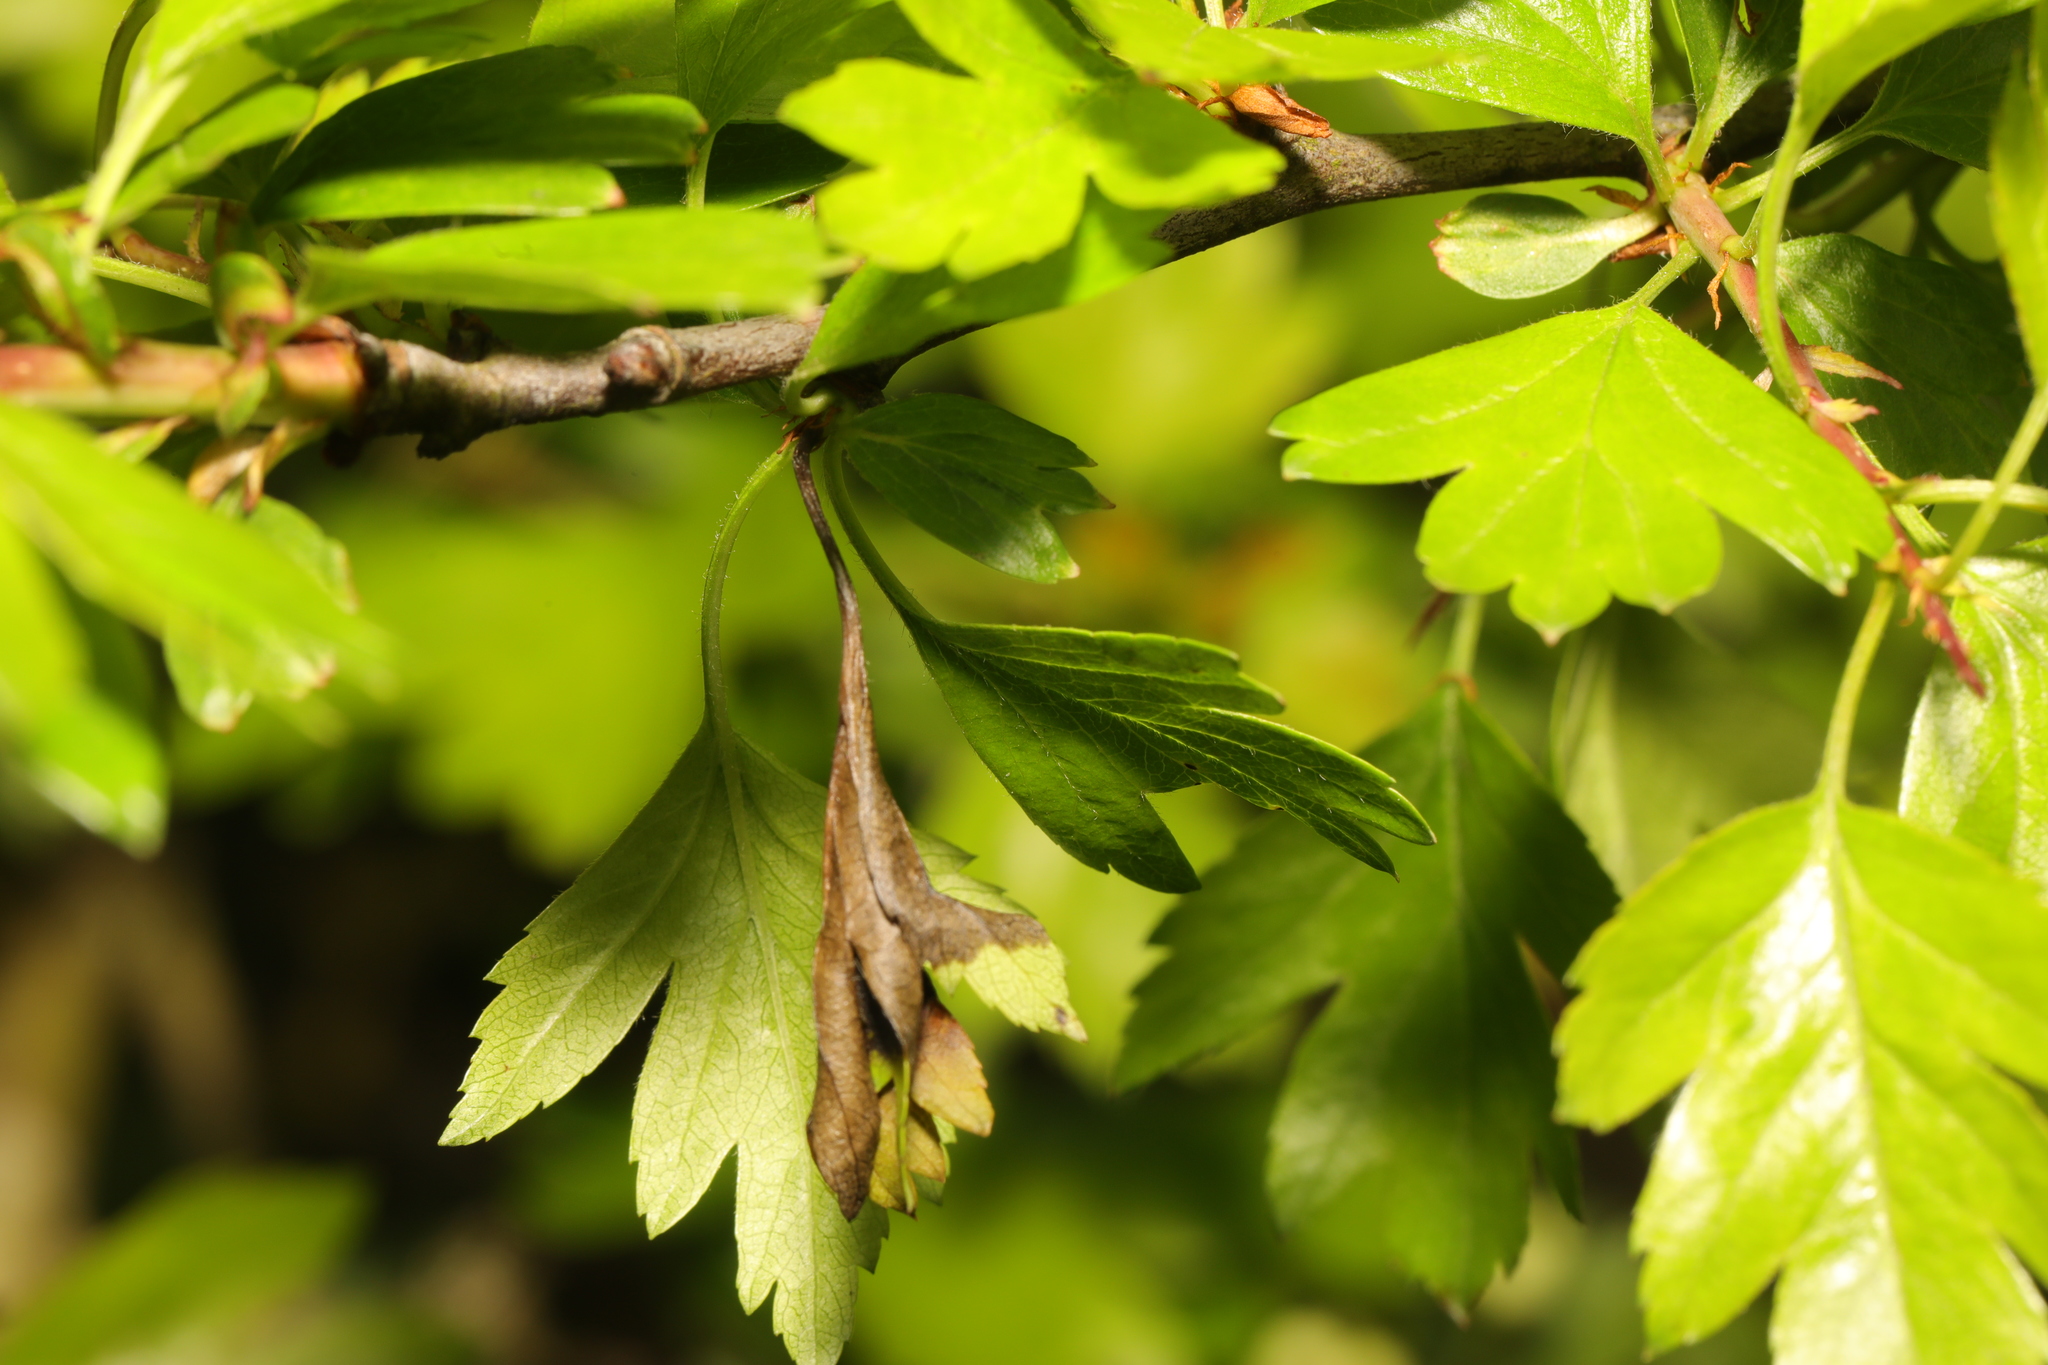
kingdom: Fungi
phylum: Ascomycota
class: Leotiomycetes
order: Helotiales
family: Sclerotiniaceae
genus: Monilinia
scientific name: Monilinia johnsonii
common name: Haw goblet
